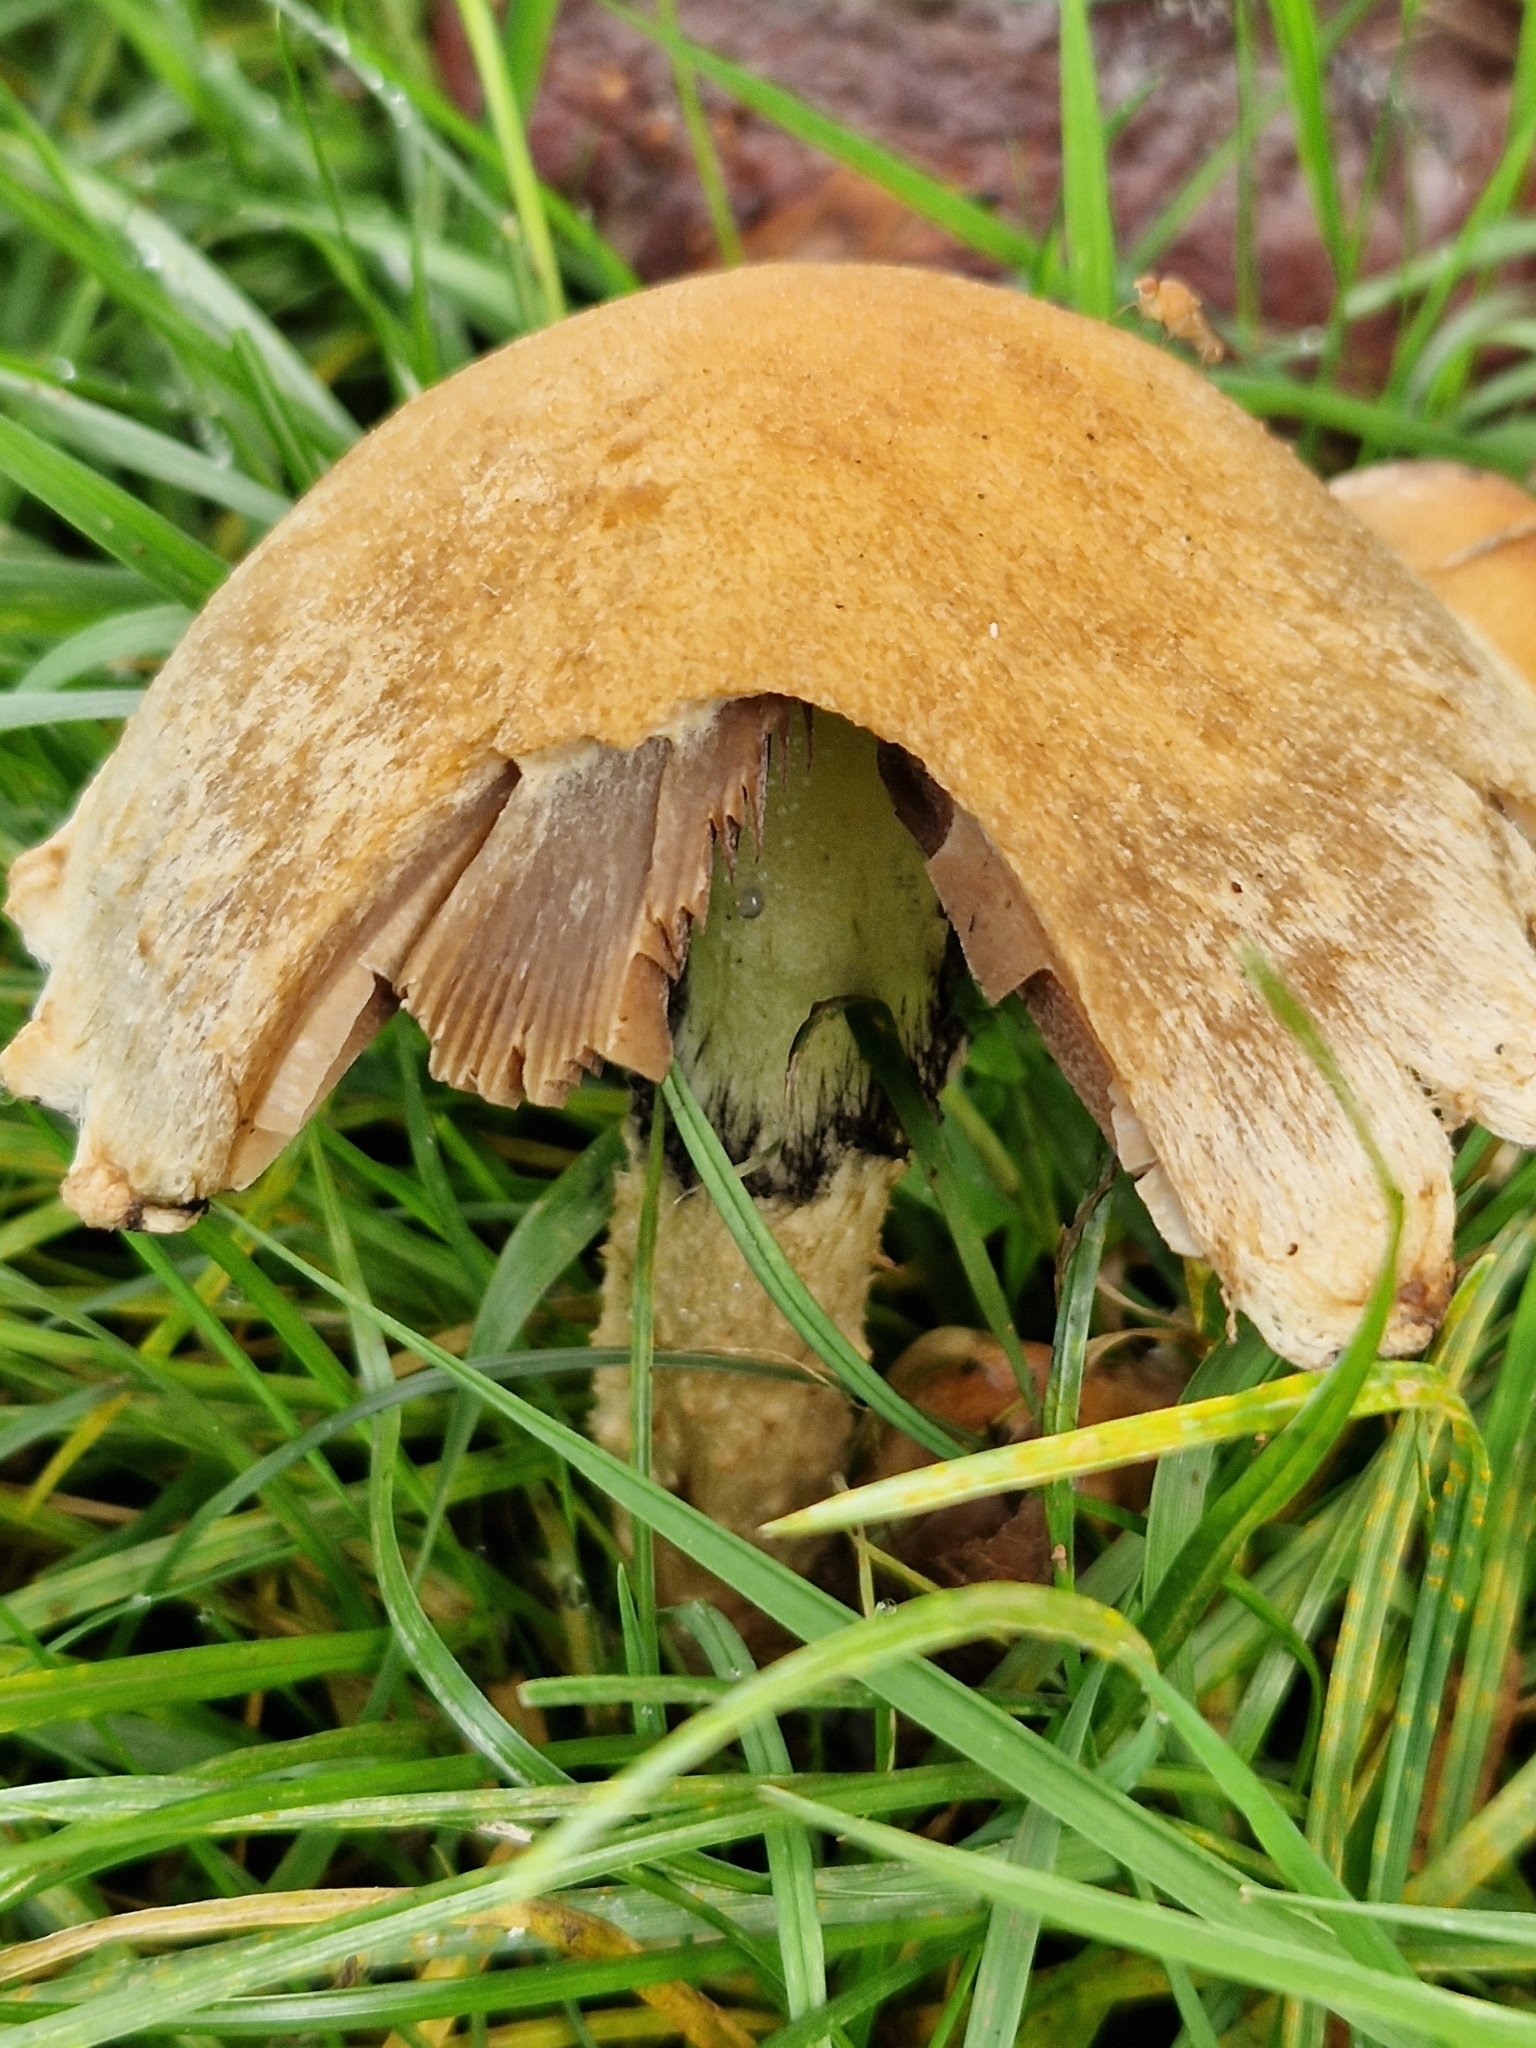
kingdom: Fungi
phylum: Basidiomycota
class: Agaricomycetes
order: Agaricales
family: Psathyrellaceae
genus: Lacrymaria
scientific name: Lacrymaria lacrymabunda
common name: Weeping widow
